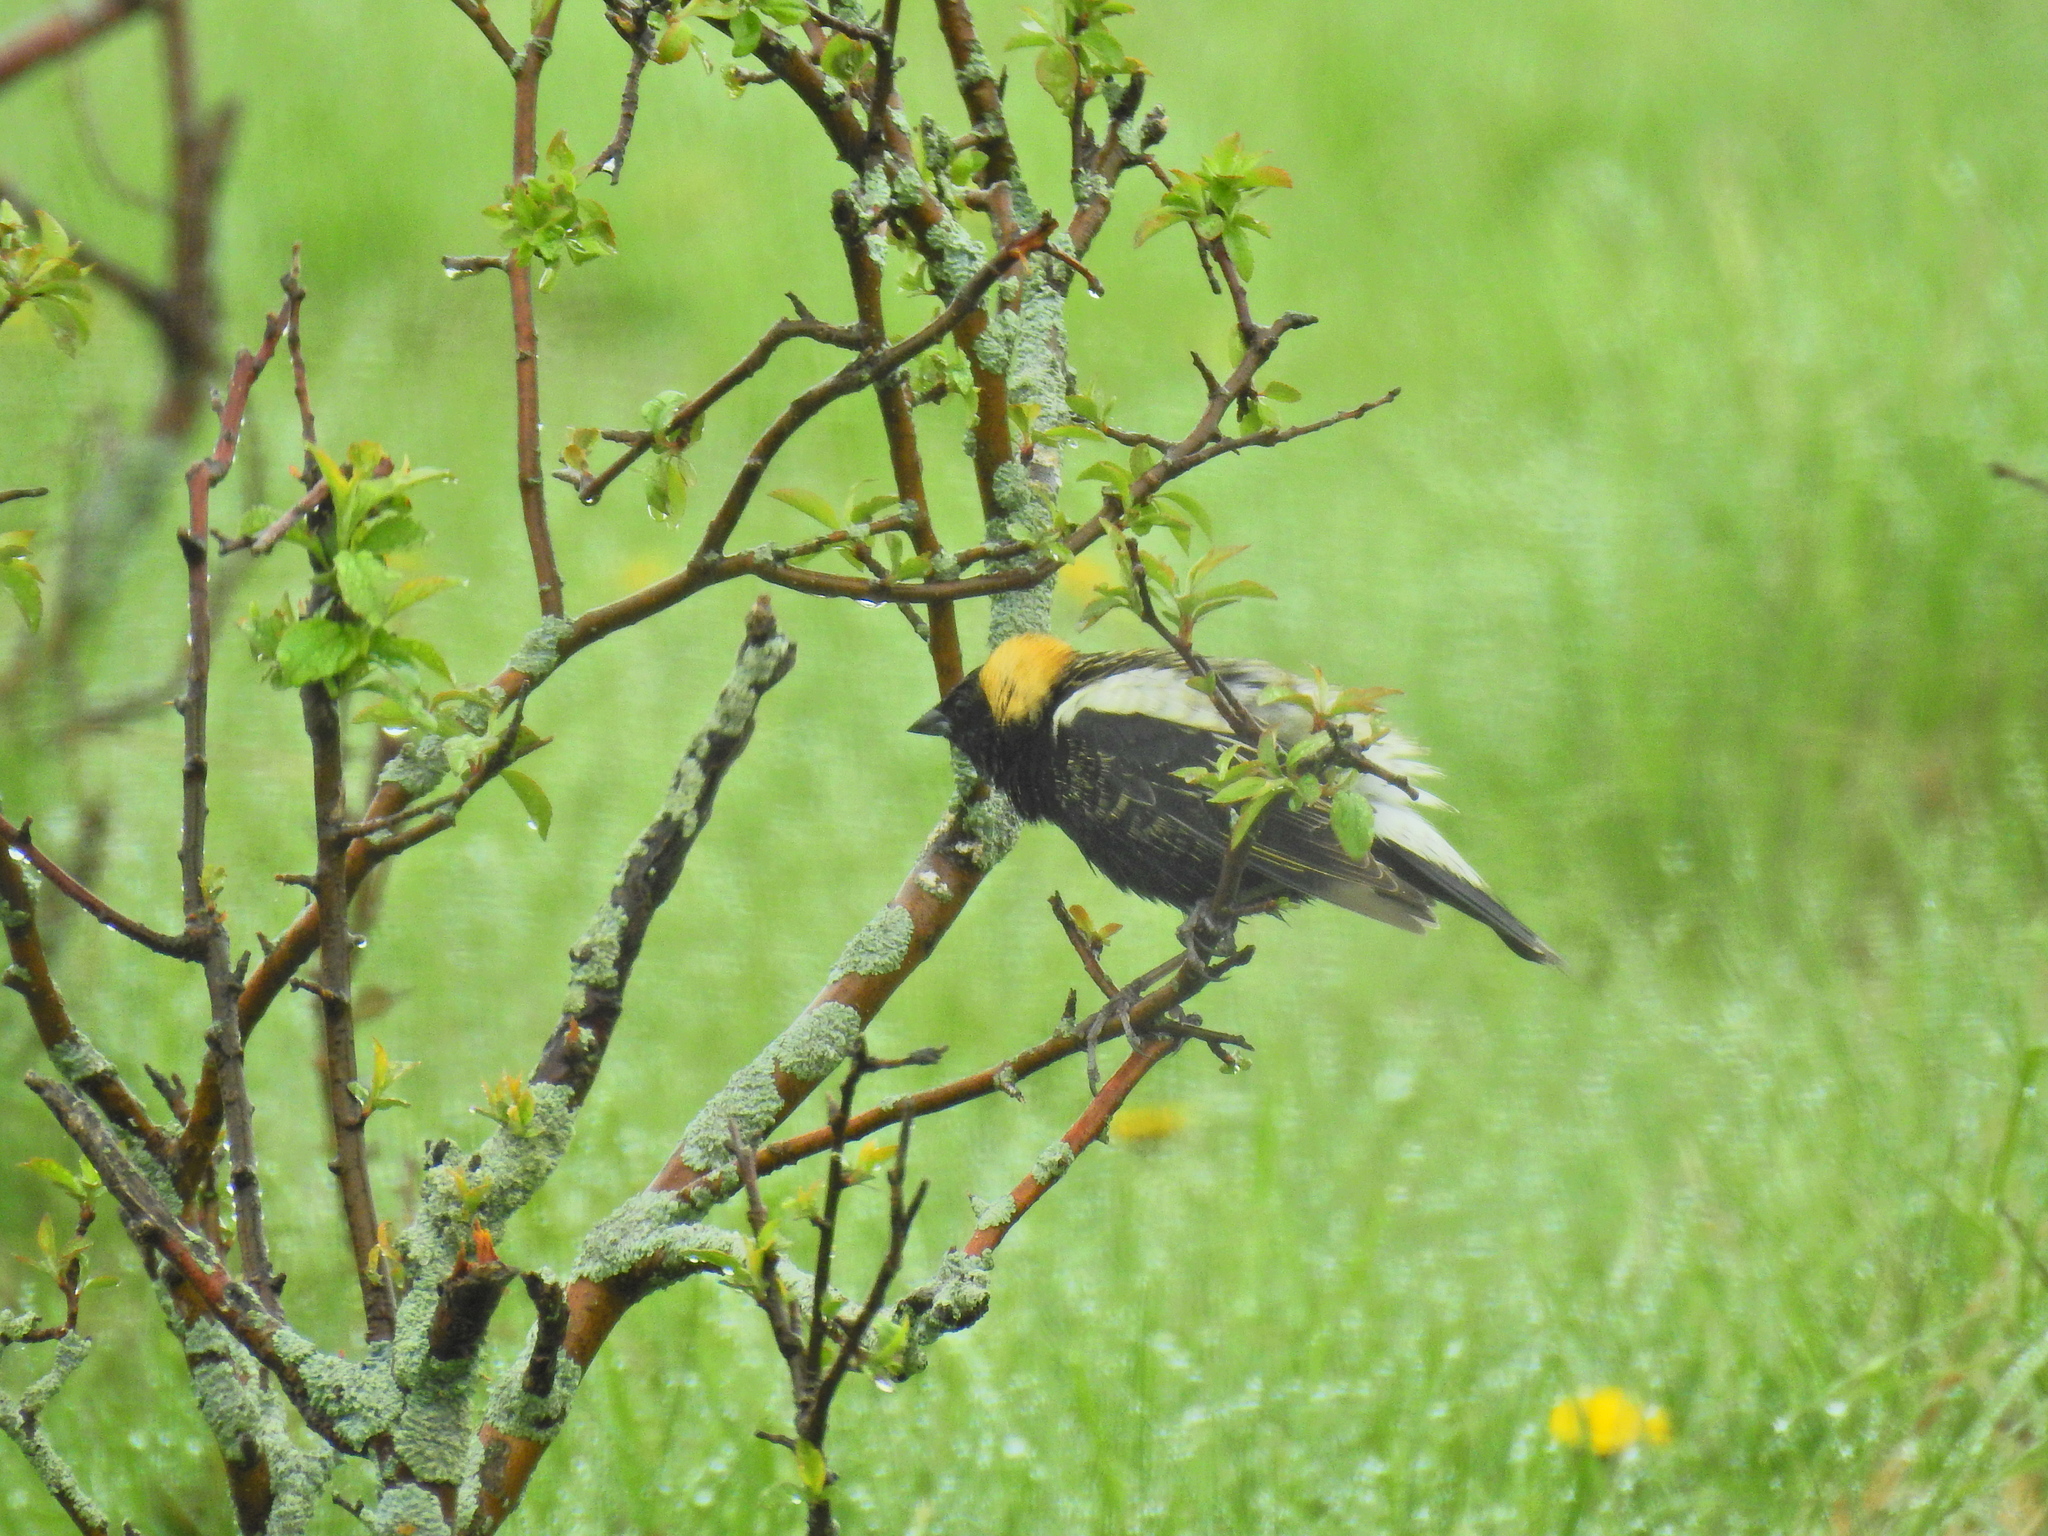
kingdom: Animalia
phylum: Chordata
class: Aves
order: Passeriformes
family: Icteridae
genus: Dolichonyx
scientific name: Dolichonyx oryzivorus
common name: Bobolink
